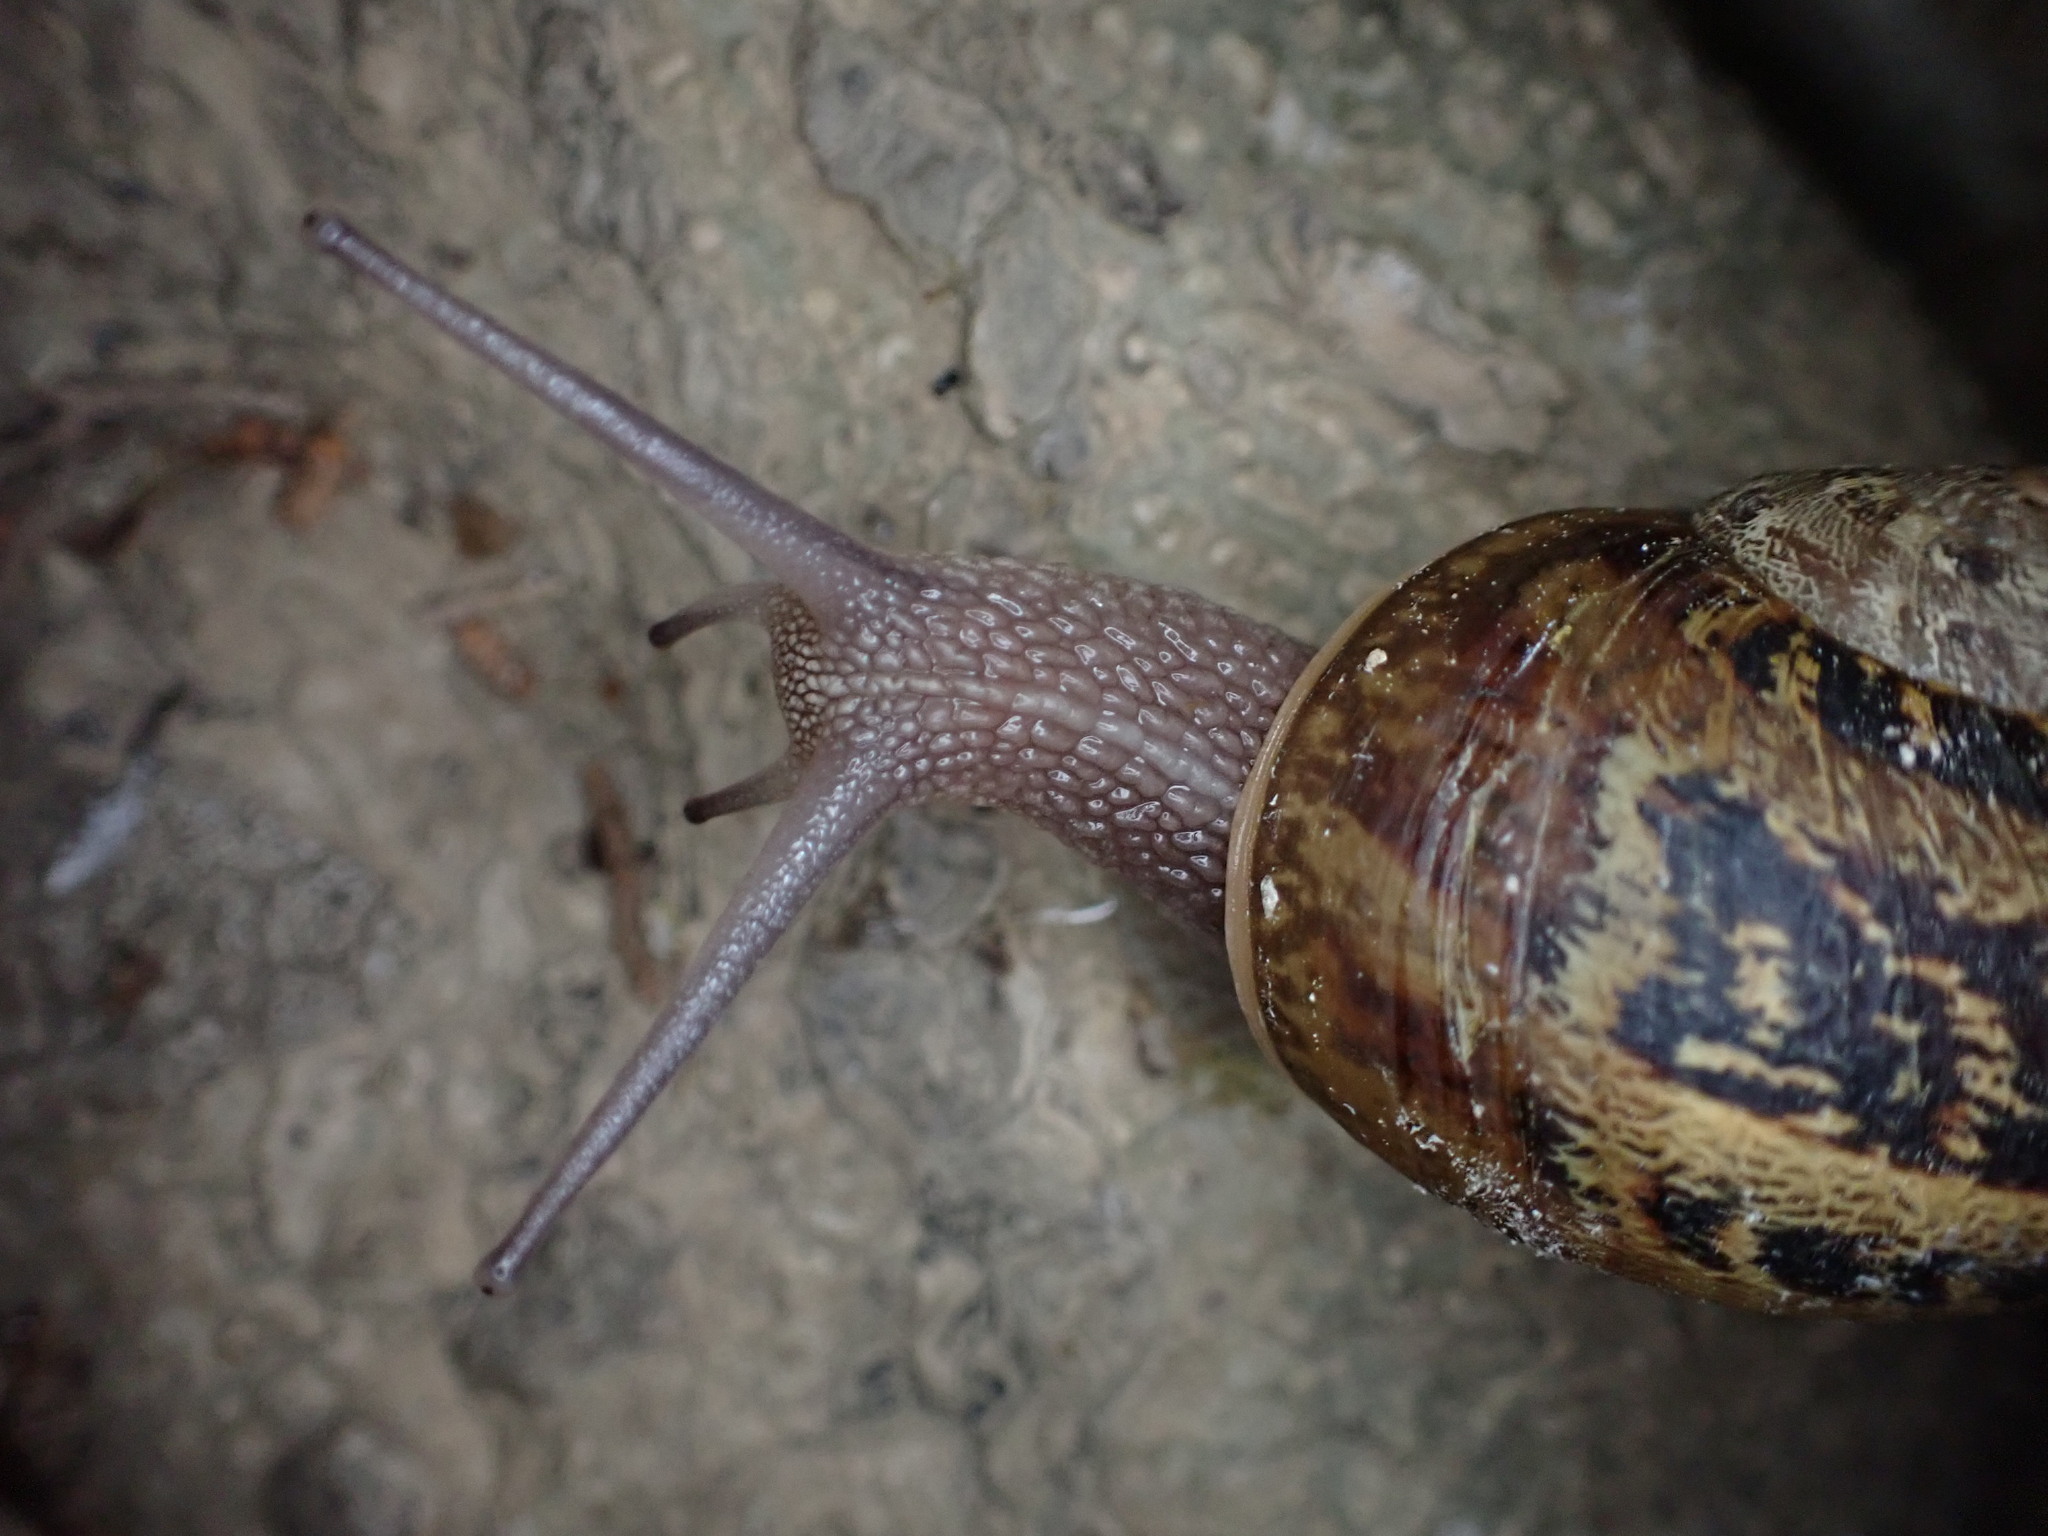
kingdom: Animalia
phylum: Mollusca
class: Gastropoda
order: Stylommatophora
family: Helicidae
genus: Cornu
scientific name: Cornu aspersum
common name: Brown garden snail
